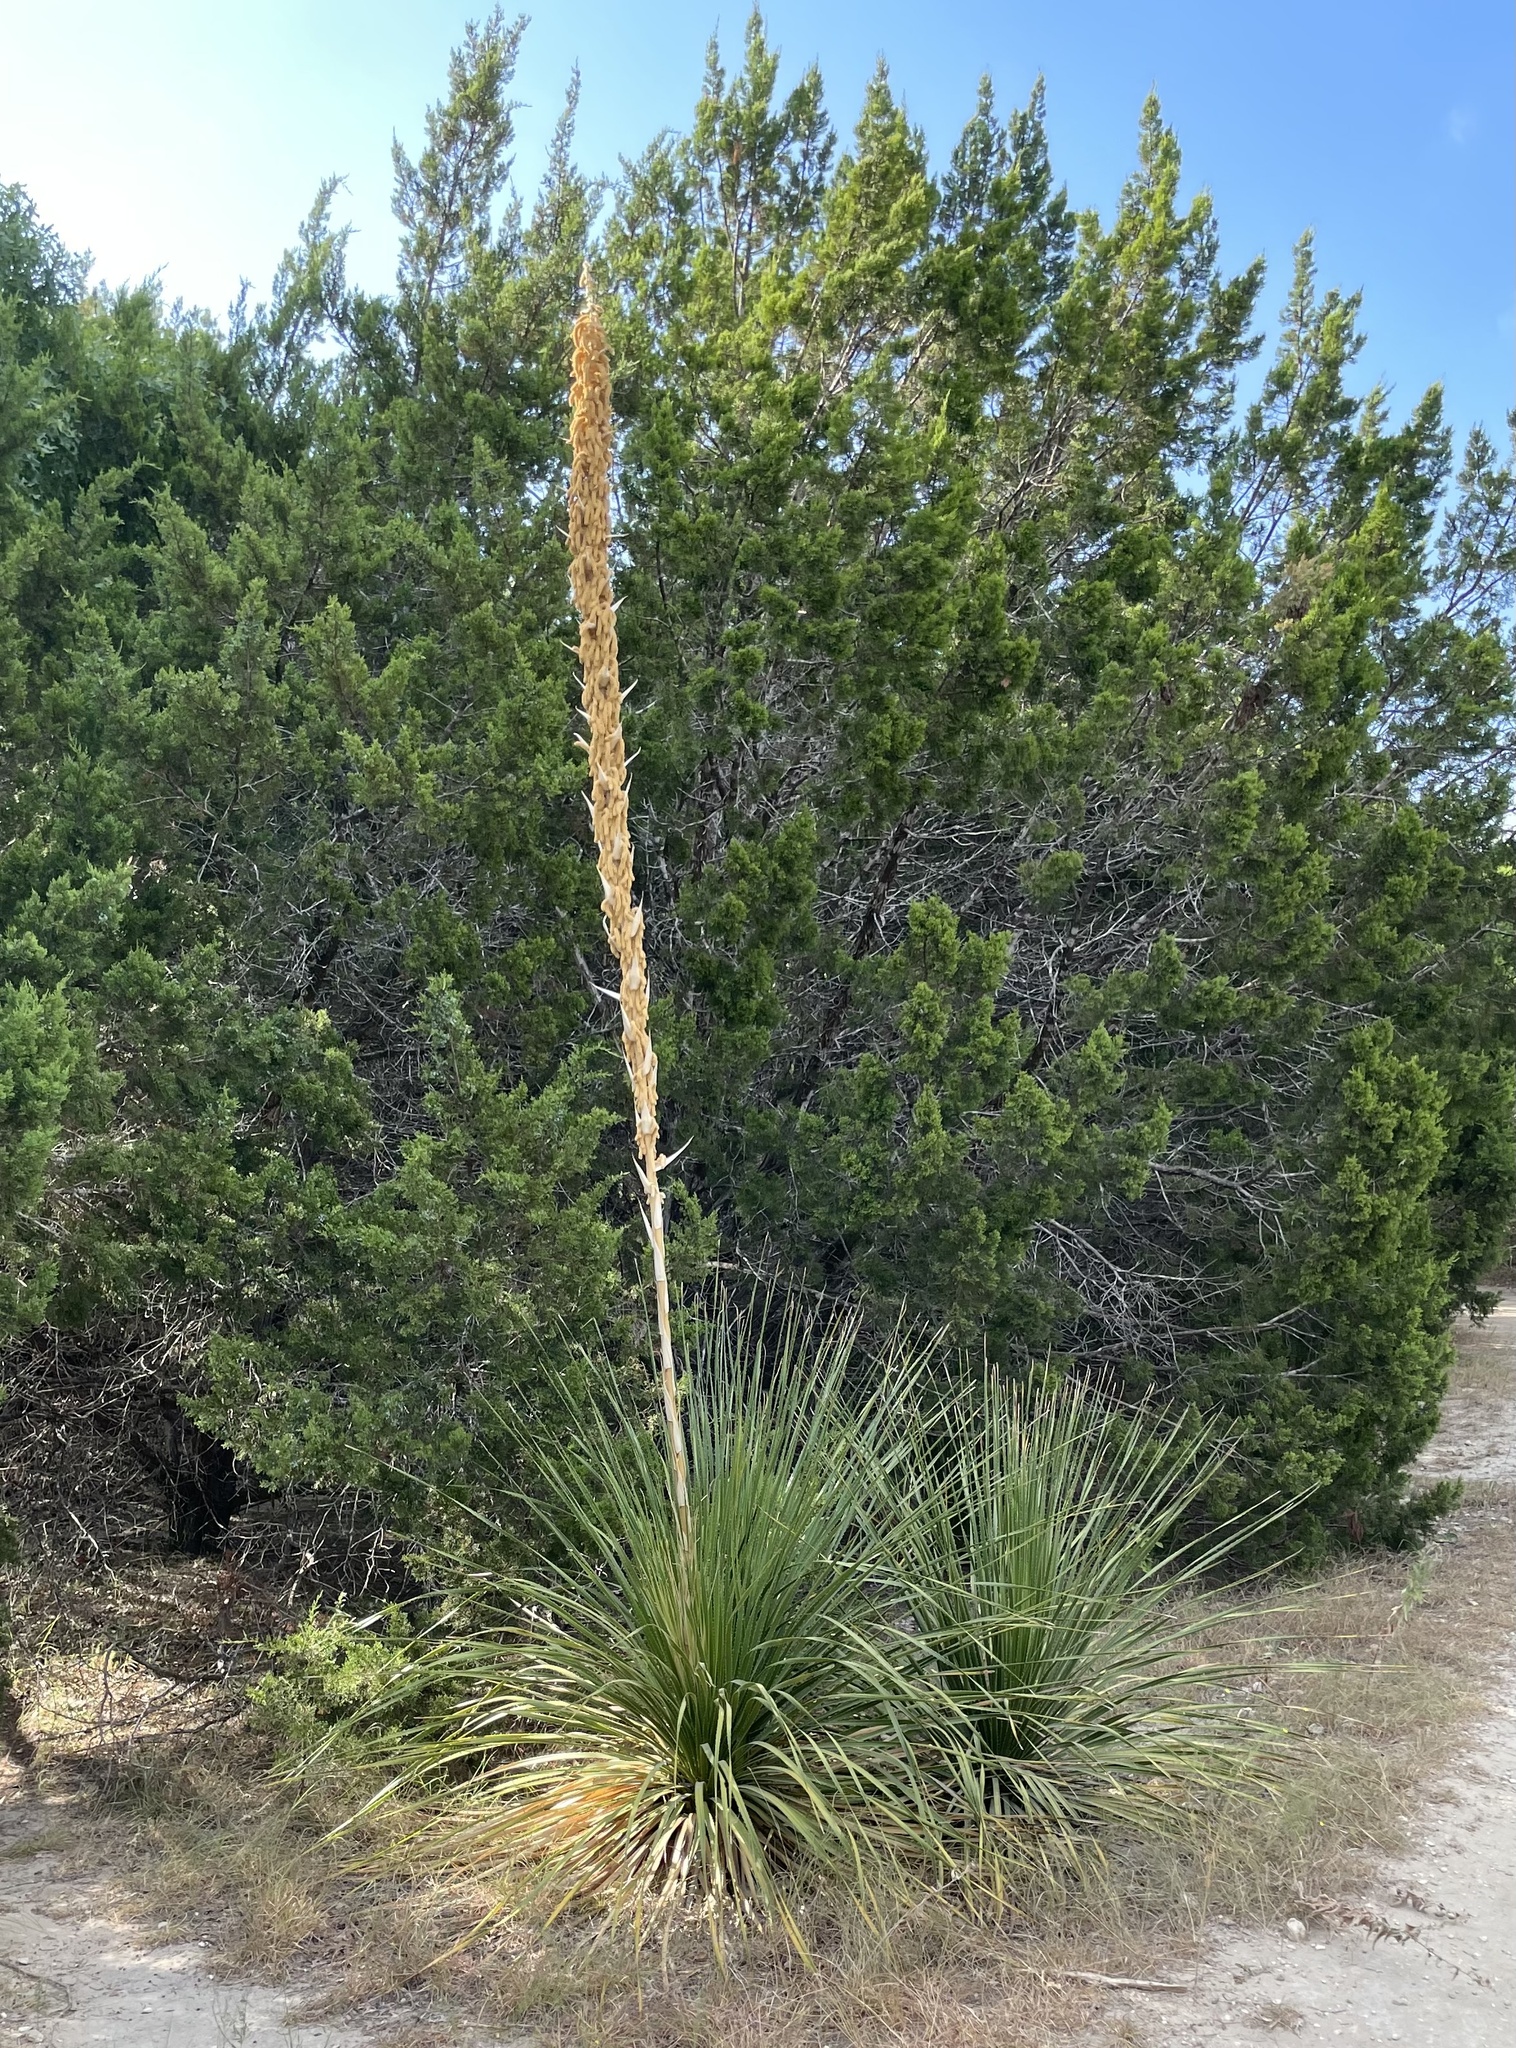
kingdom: Plantae
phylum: Tracheophyta
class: Liliopsida
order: Asparagales
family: Asparagaceae
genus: Dasylirion
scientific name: Dasylirion texanum
